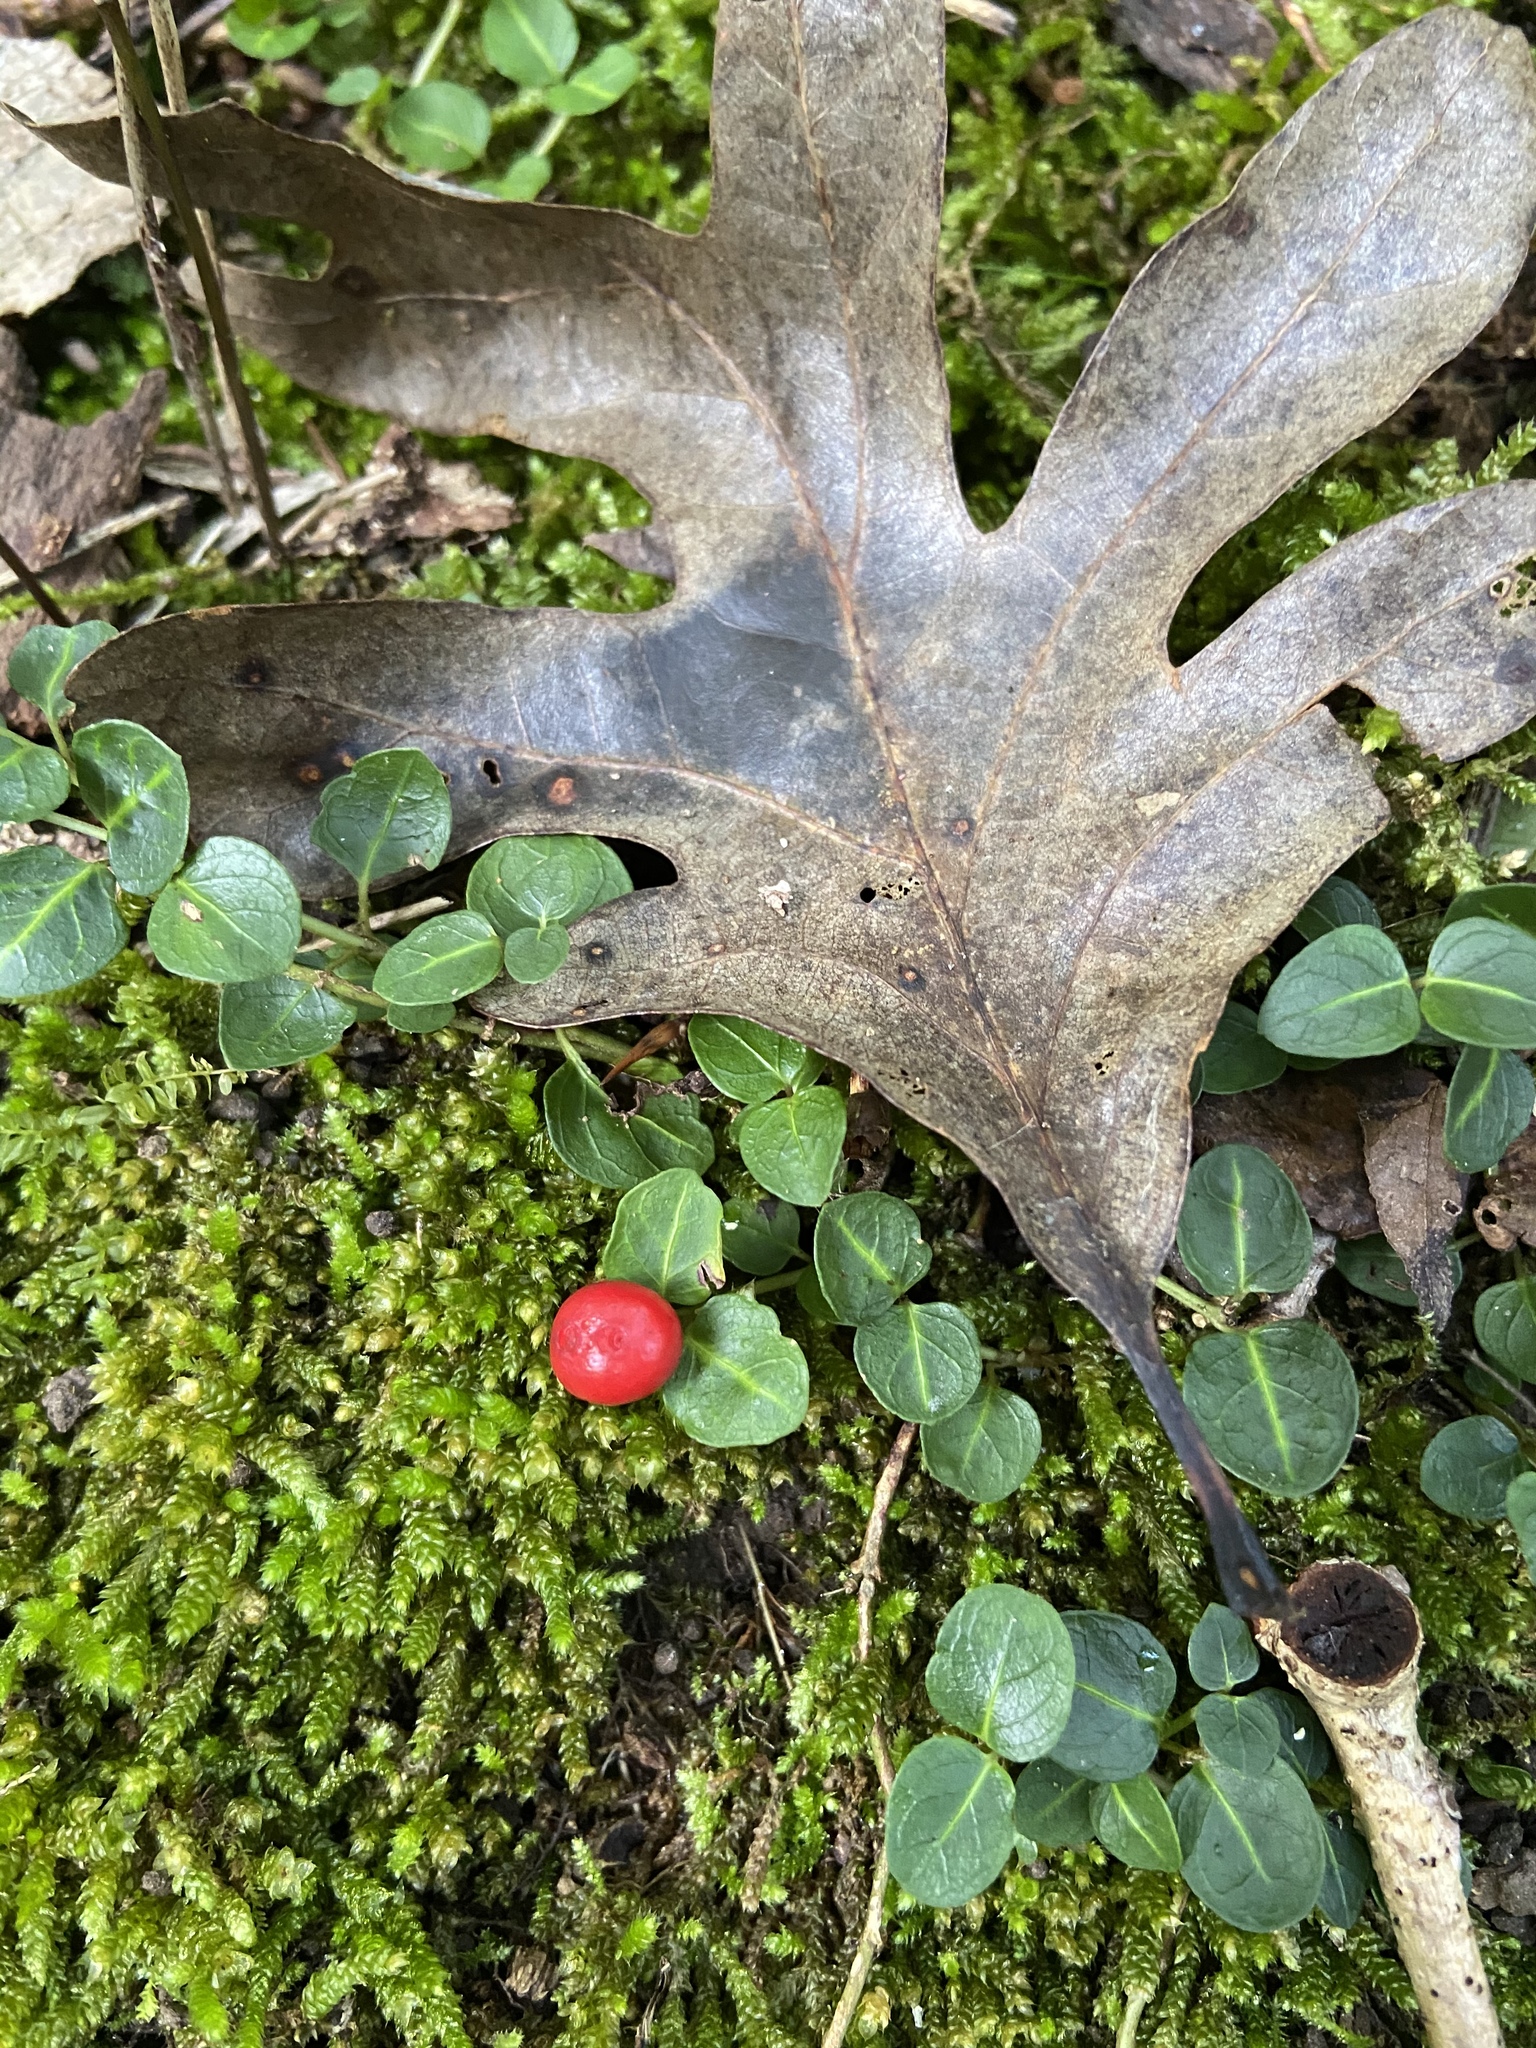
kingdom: Plantae
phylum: Tracheophyta
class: Magnoliopsida
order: Gentianales
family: Rubiaceae
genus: Mitchella
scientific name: Mitchella repens
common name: Partridge-berry
